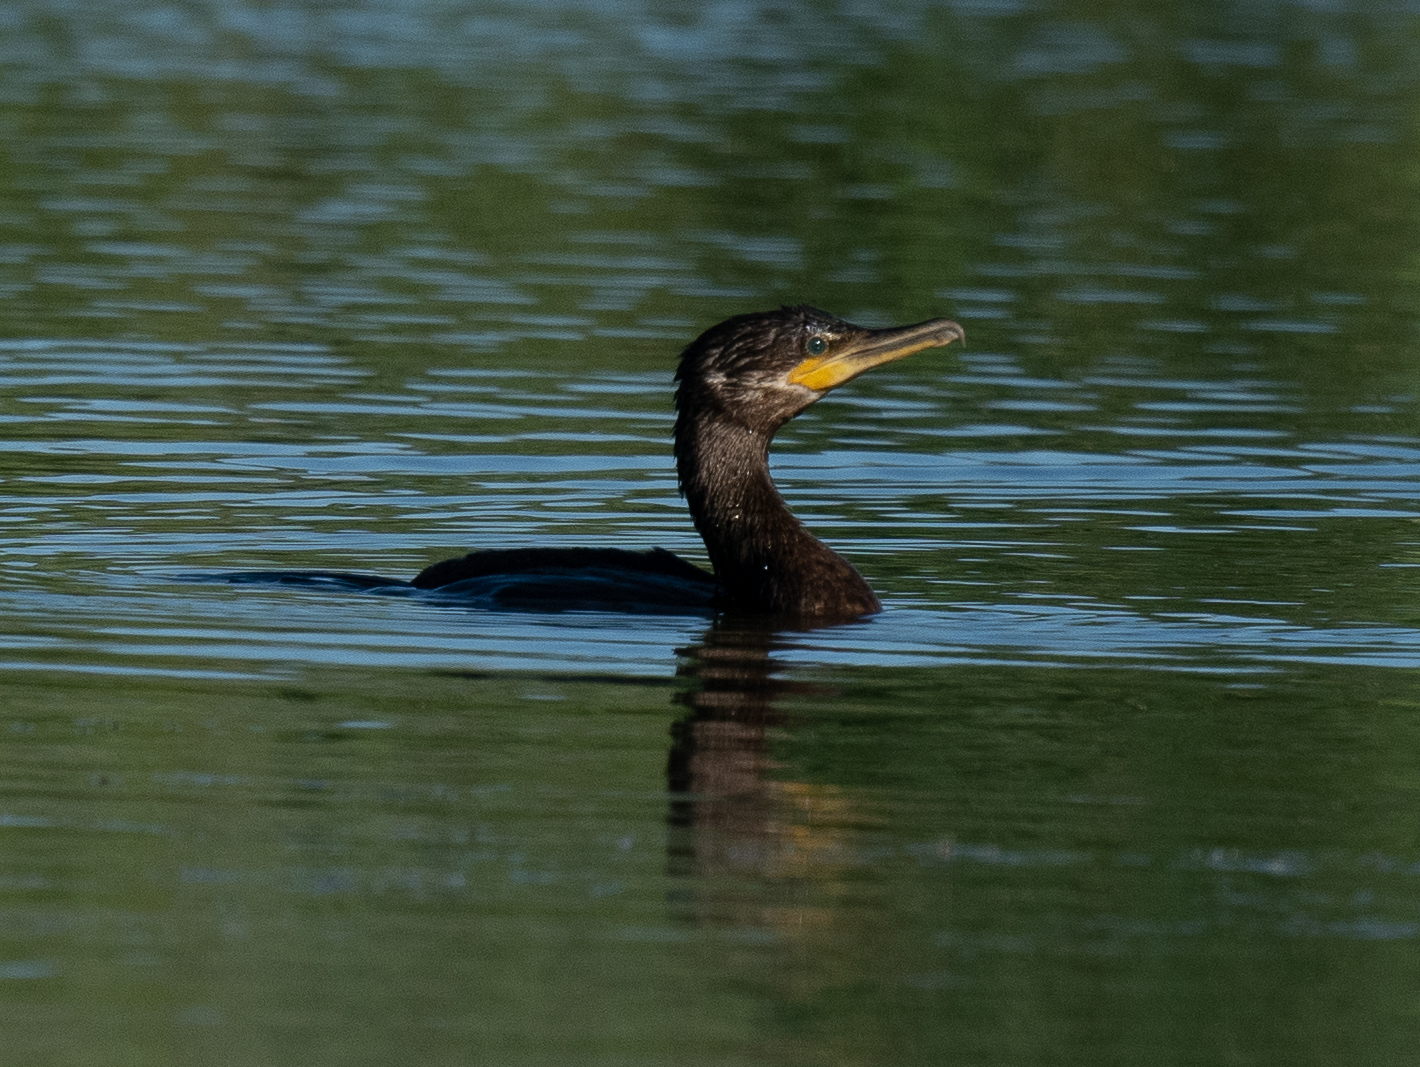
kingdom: Animalia
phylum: Chordata
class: Aves
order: Suliformes
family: Phalacrocoracidae
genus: Phalacrocorax
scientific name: Phalacrocorax brasilianus
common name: Neotropic cormorant
